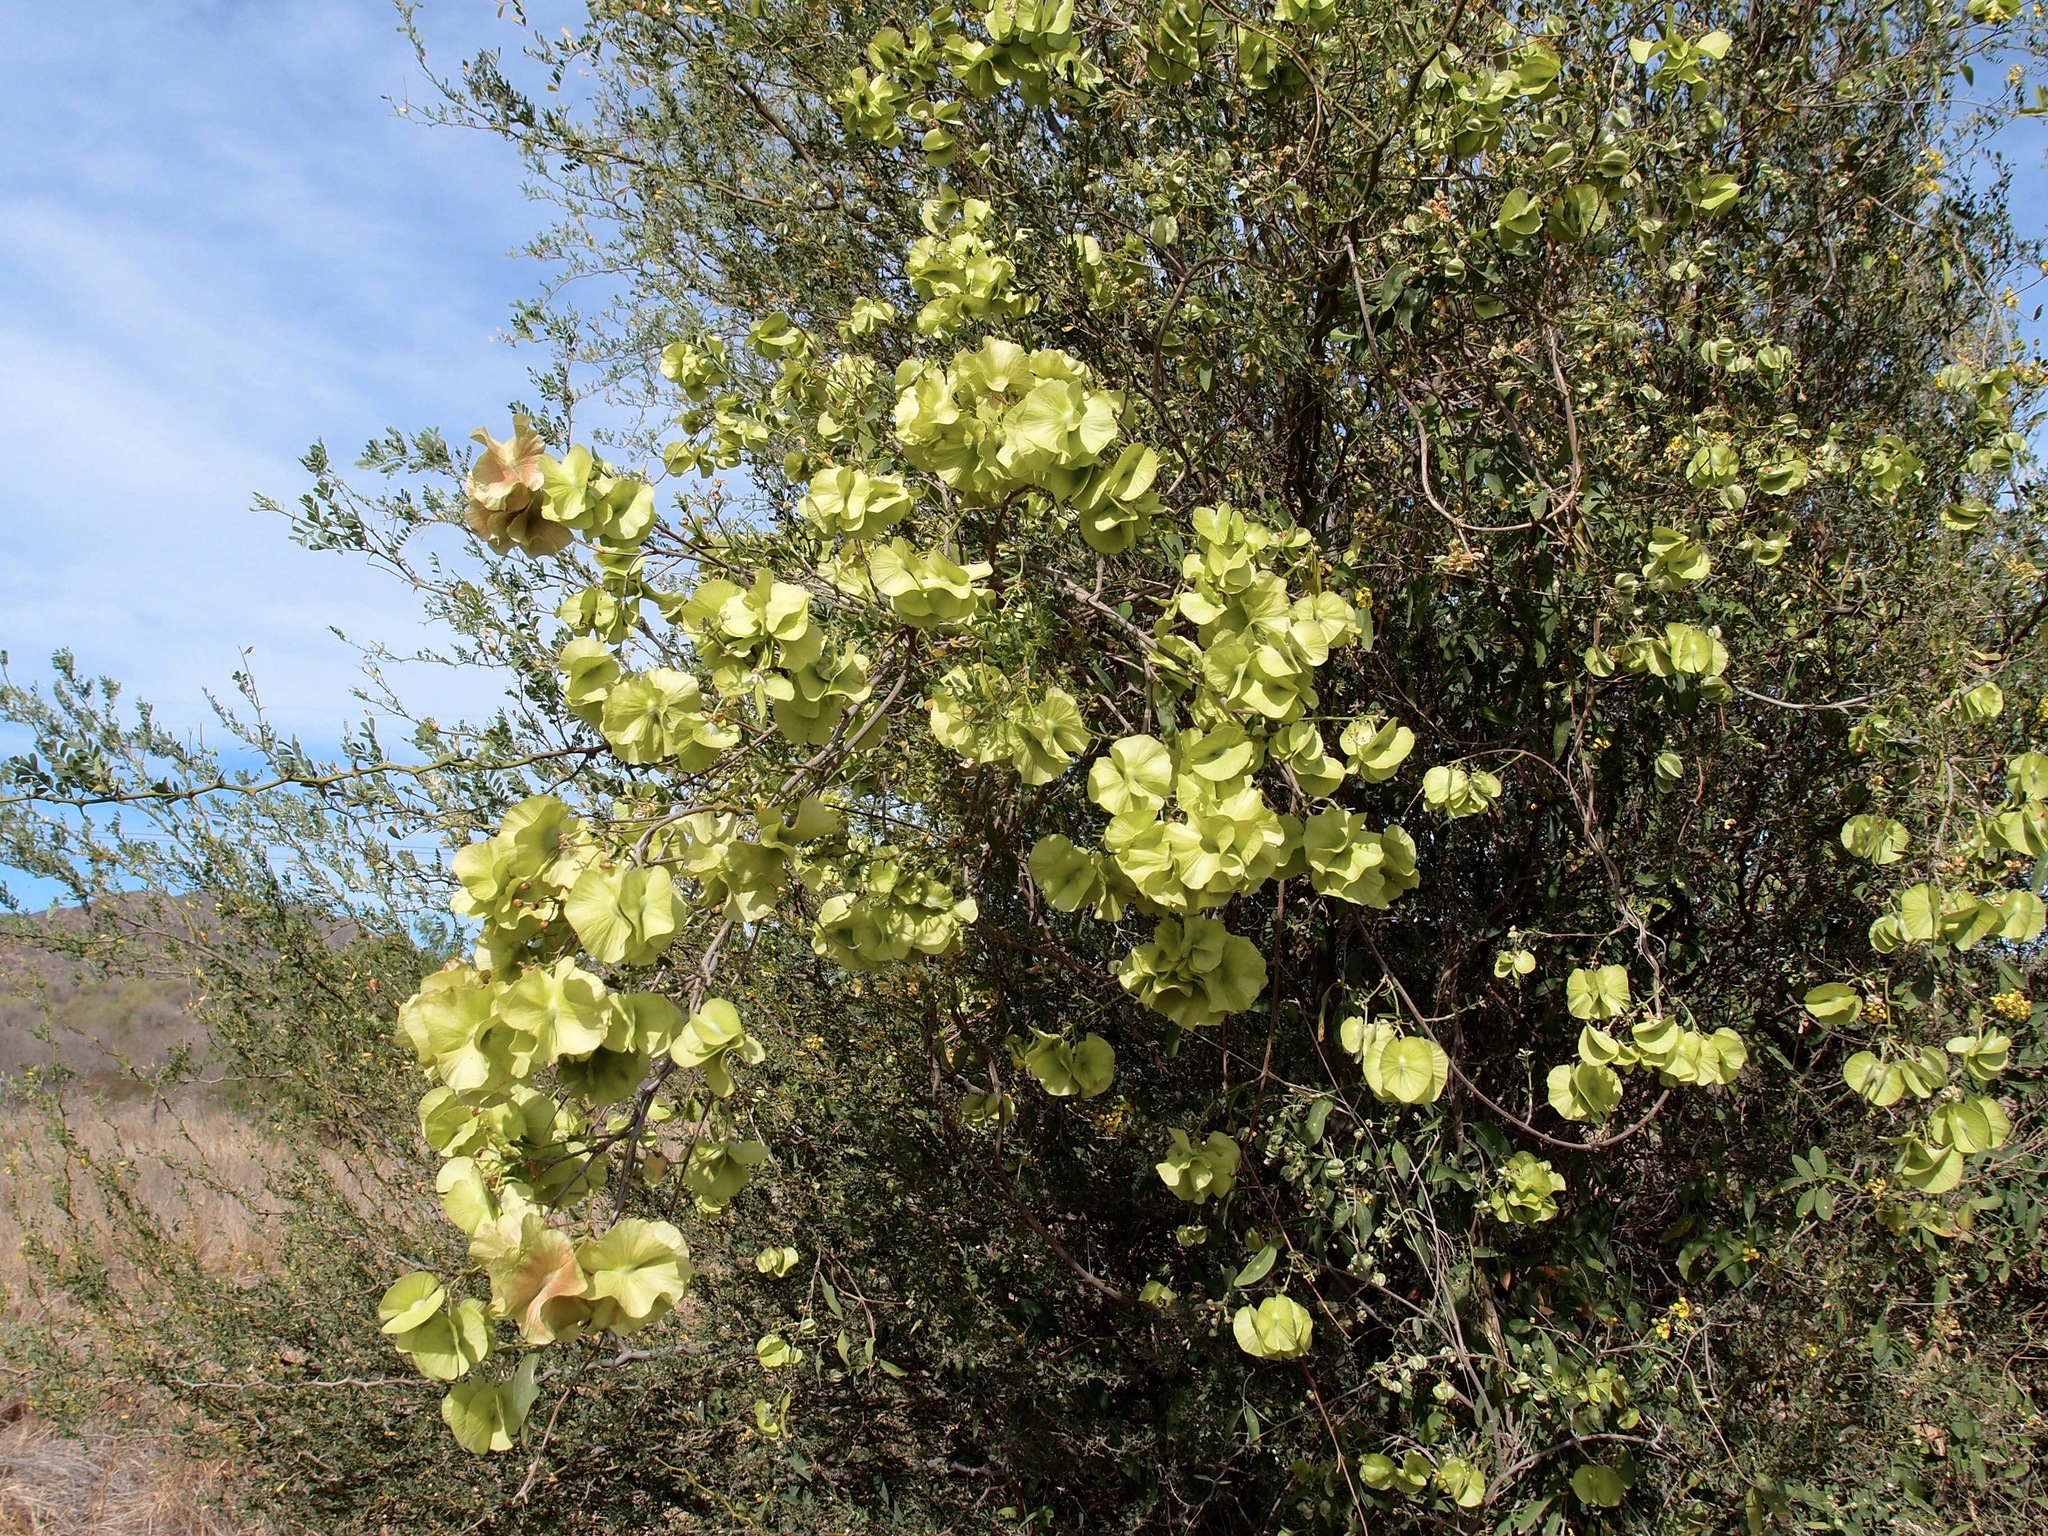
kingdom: Plantae
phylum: Tracheophyta
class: Magnoliopsida
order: Malpighiales
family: Malpighiaceae
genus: Callaeum
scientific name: Callaeum macropterum
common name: Mexican butterfly-vine
